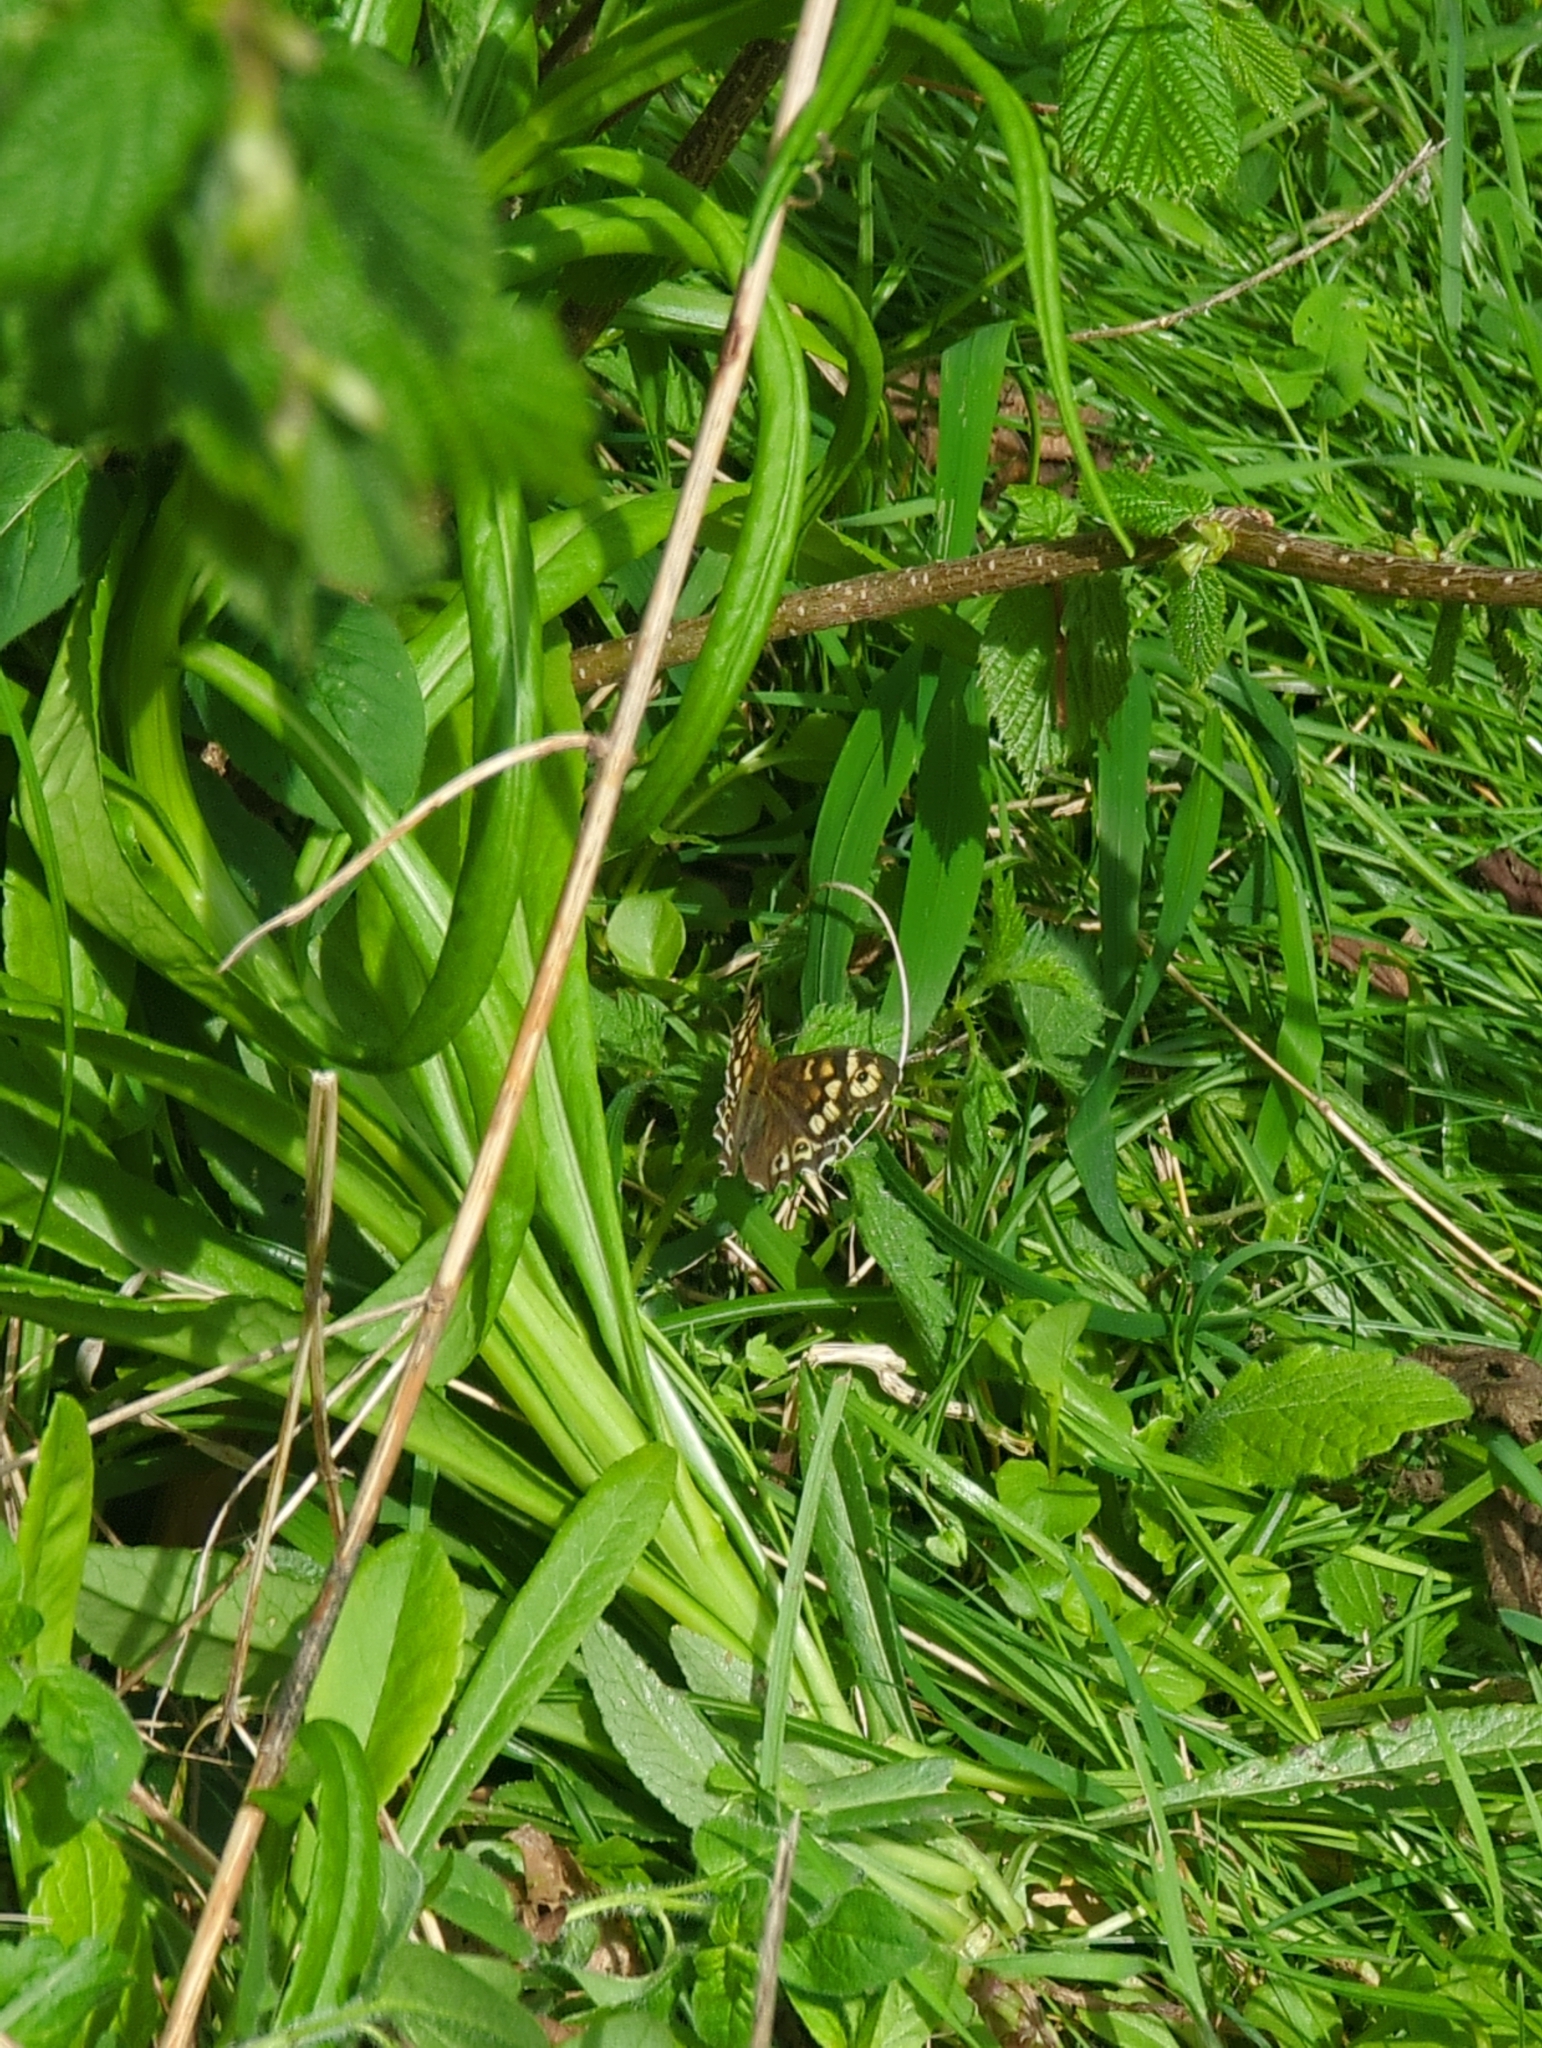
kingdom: Animalia
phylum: Arthropoda
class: Insecta
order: Lepidoptera
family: Nymphalidae
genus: Pararge
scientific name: Pararge aegeria
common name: Speckled wood
